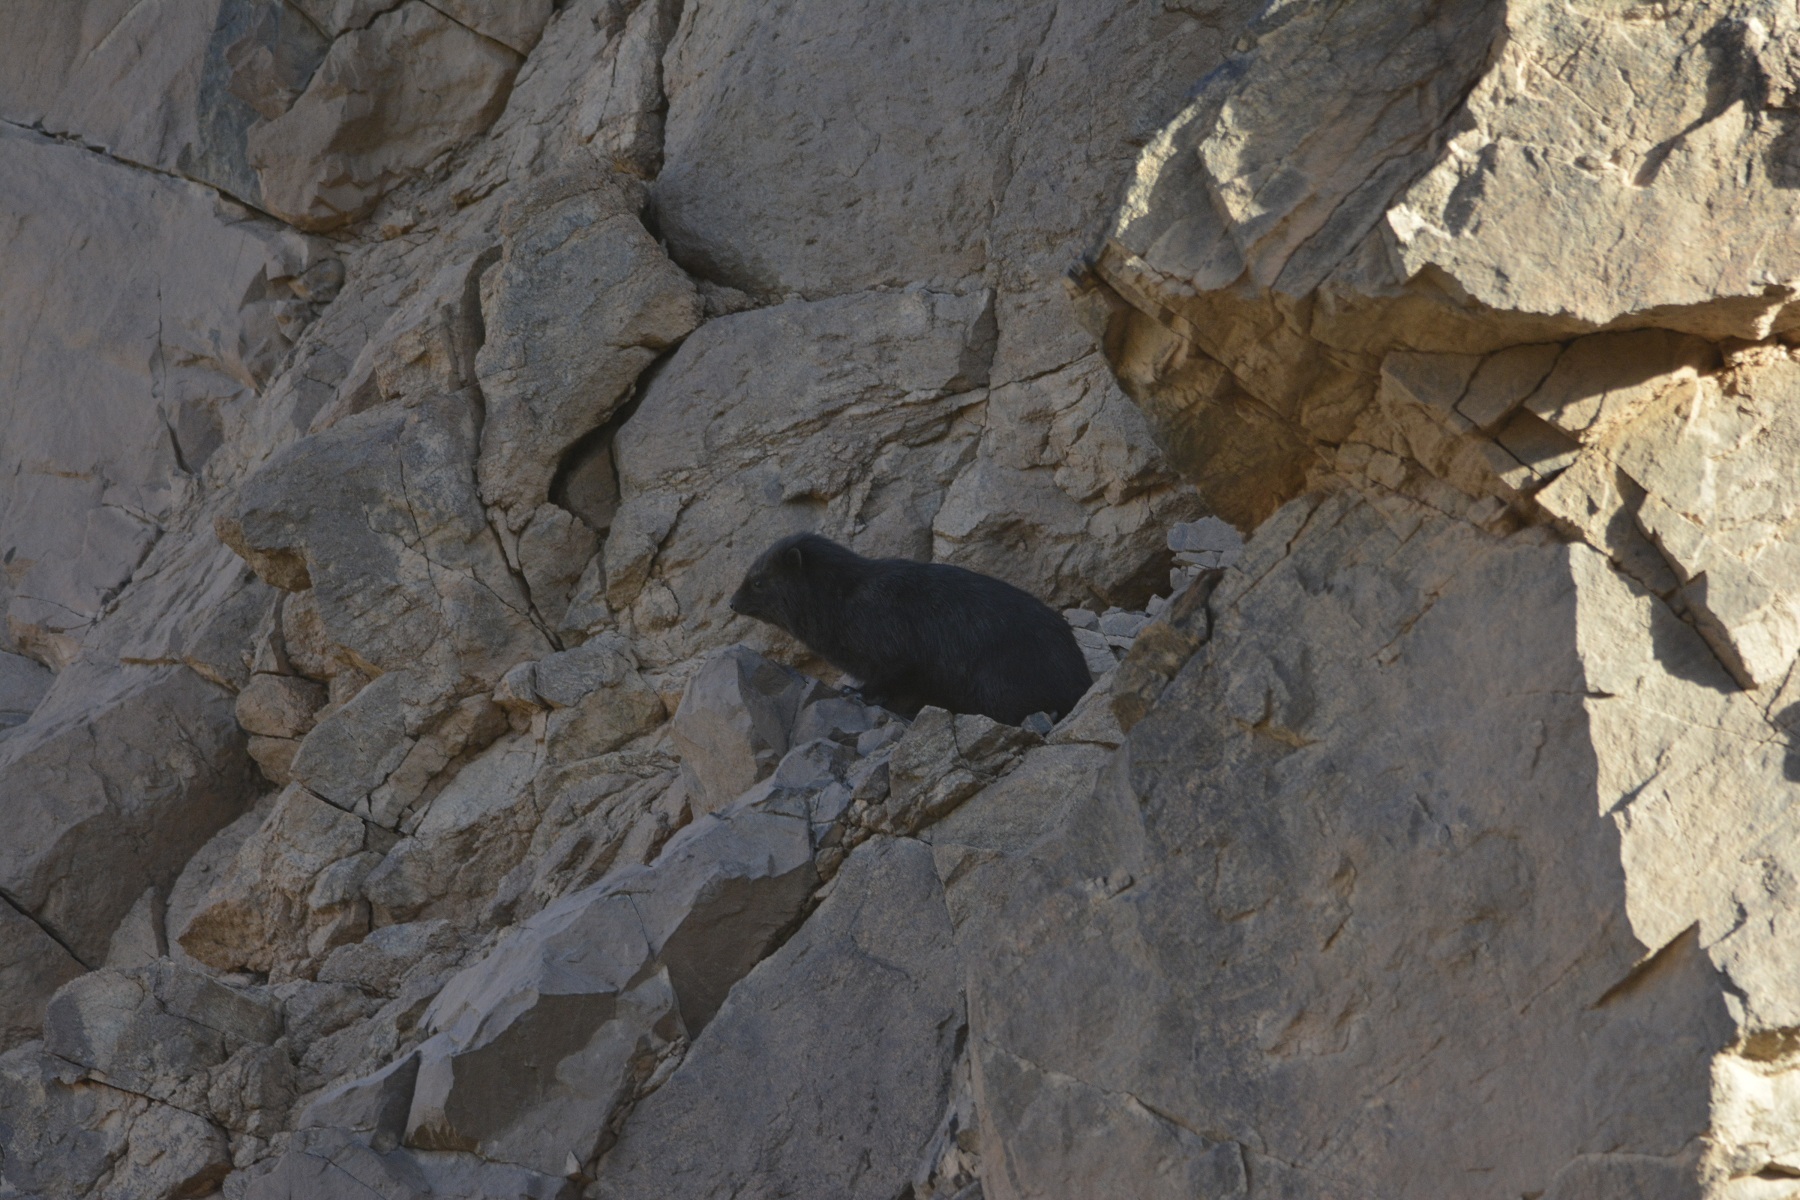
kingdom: Animalia
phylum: Chordata
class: Mammalia
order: Hyracoidea
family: Procaviidae
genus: Procavia
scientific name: Procavia capensis
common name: Rock hyrax
